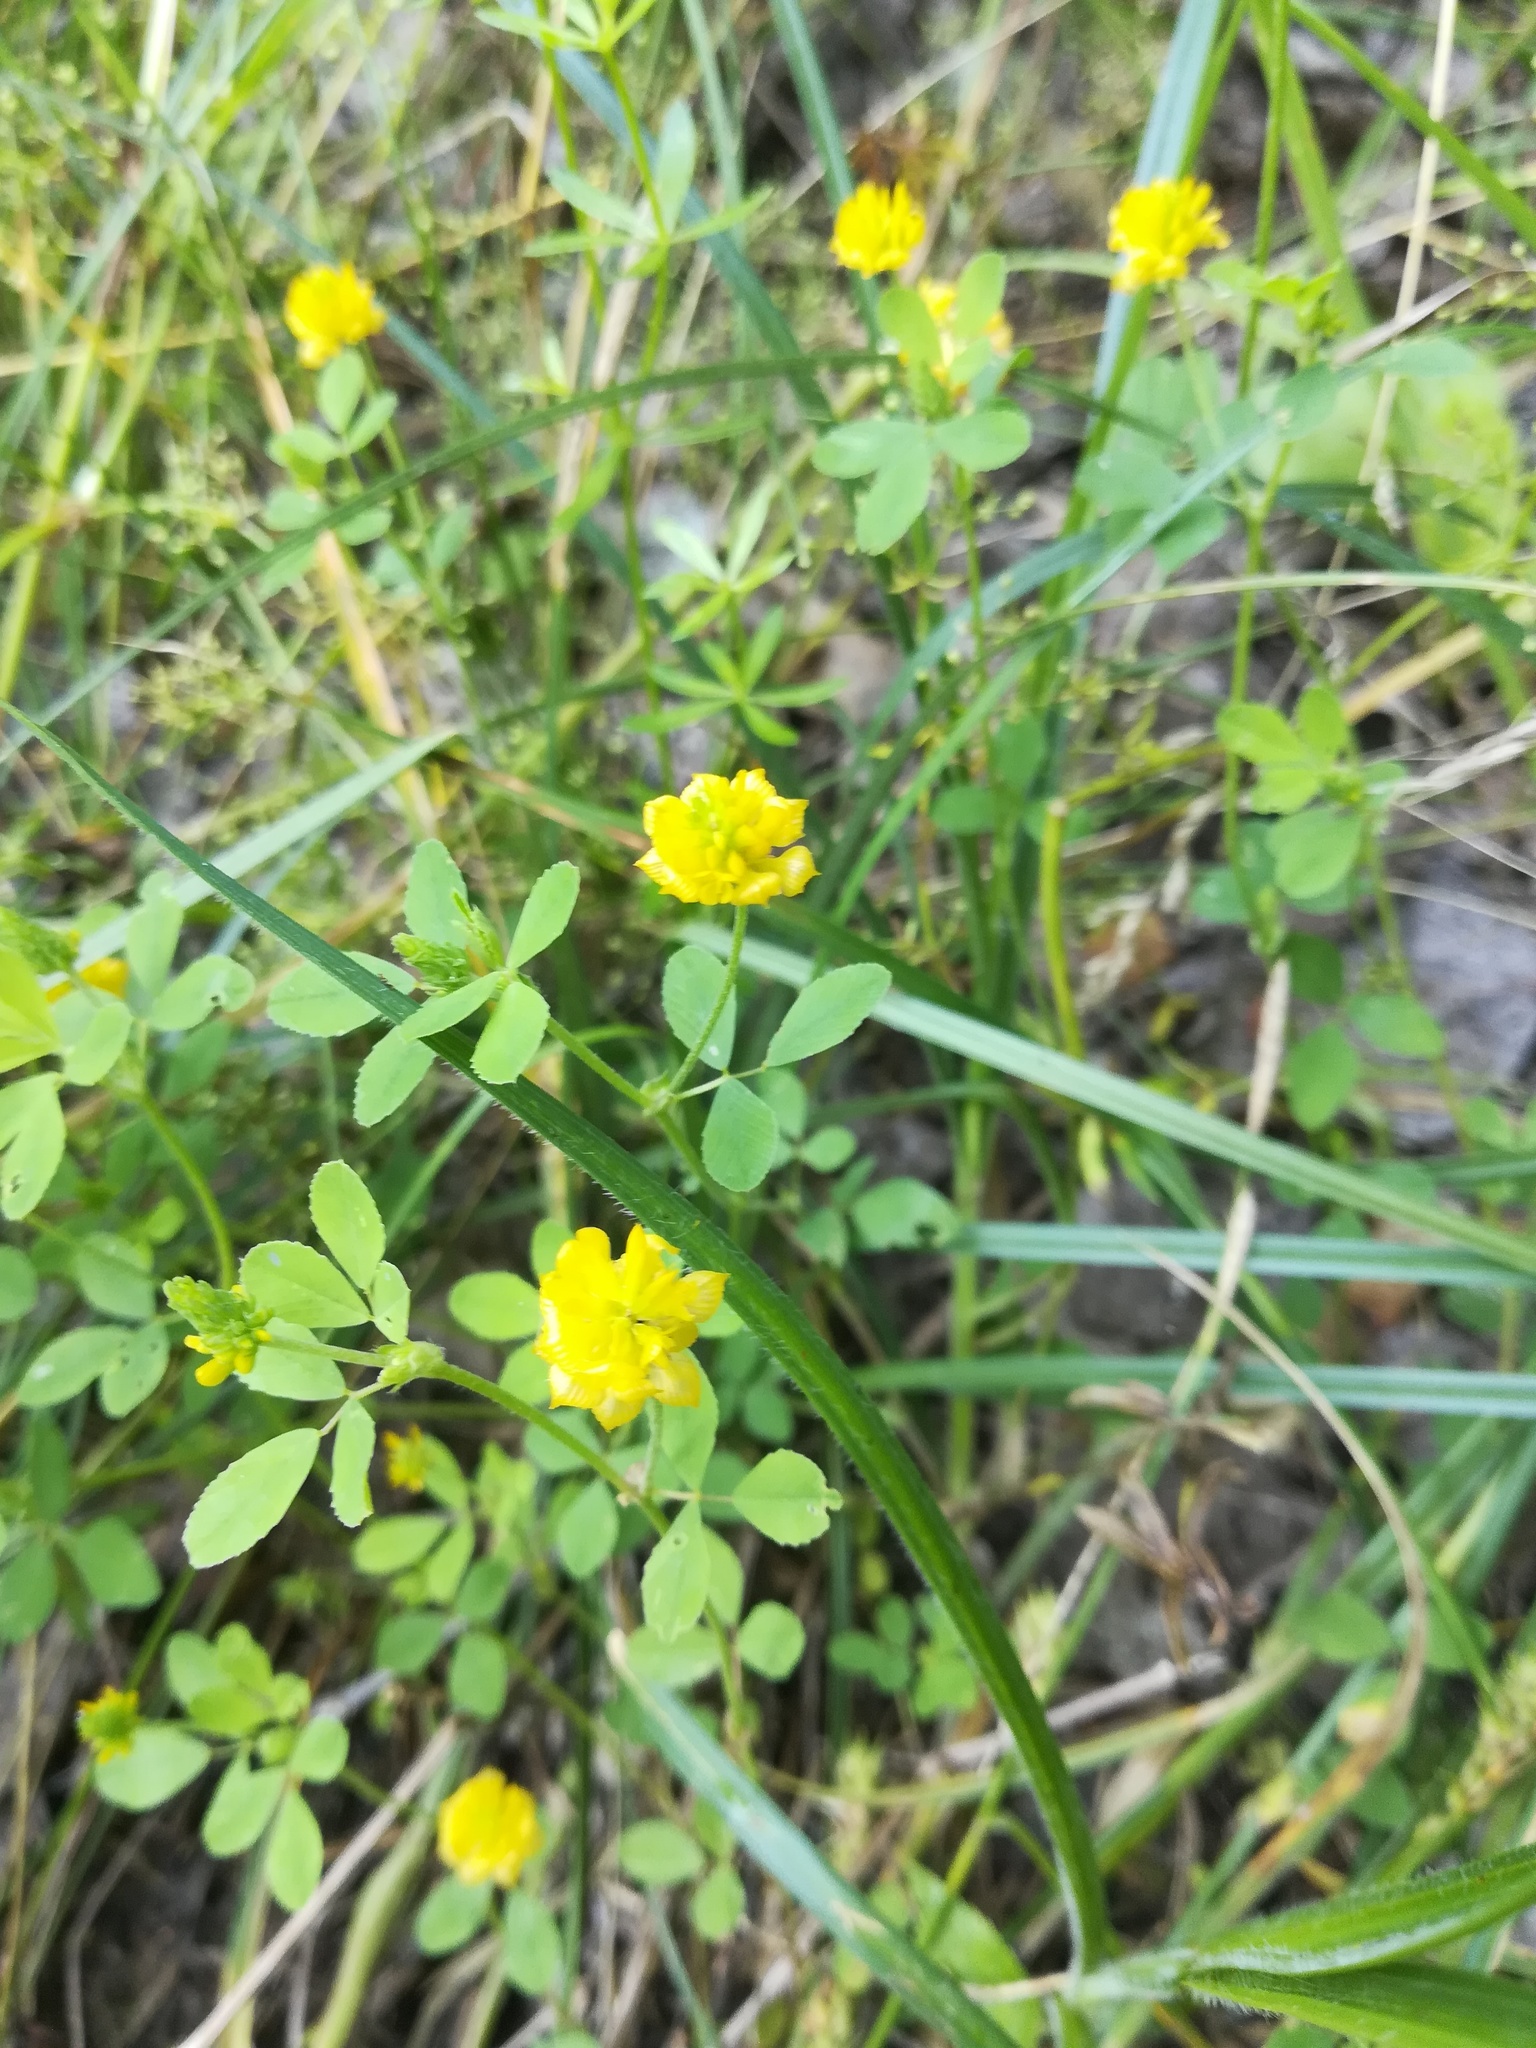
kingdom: Plantae
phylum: Tracheophyta
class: Magnoliopsida
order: Fabales
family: Fabaceae
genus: Trifolium
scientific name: Trifolium campestre
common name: Field clover
